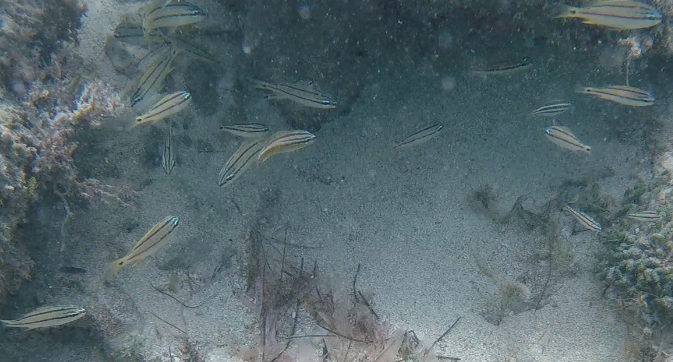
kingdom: Animalia
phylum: Chordata
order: Perciformes
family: Haemulidae
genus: Haemulon
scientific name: Haemulon flavolineatum
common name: French grunt
